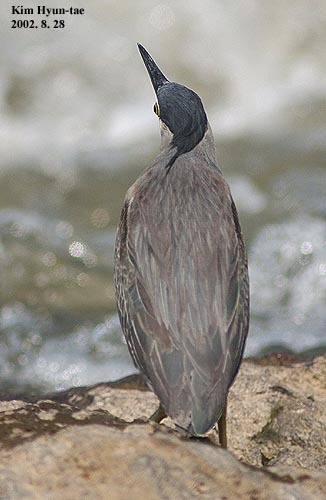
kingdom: Animalia
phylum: Chordata
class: Aves
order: Pelecaniformes
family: Ardeidae
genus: Butorides
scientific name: Butorides striata
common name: Striated heron
